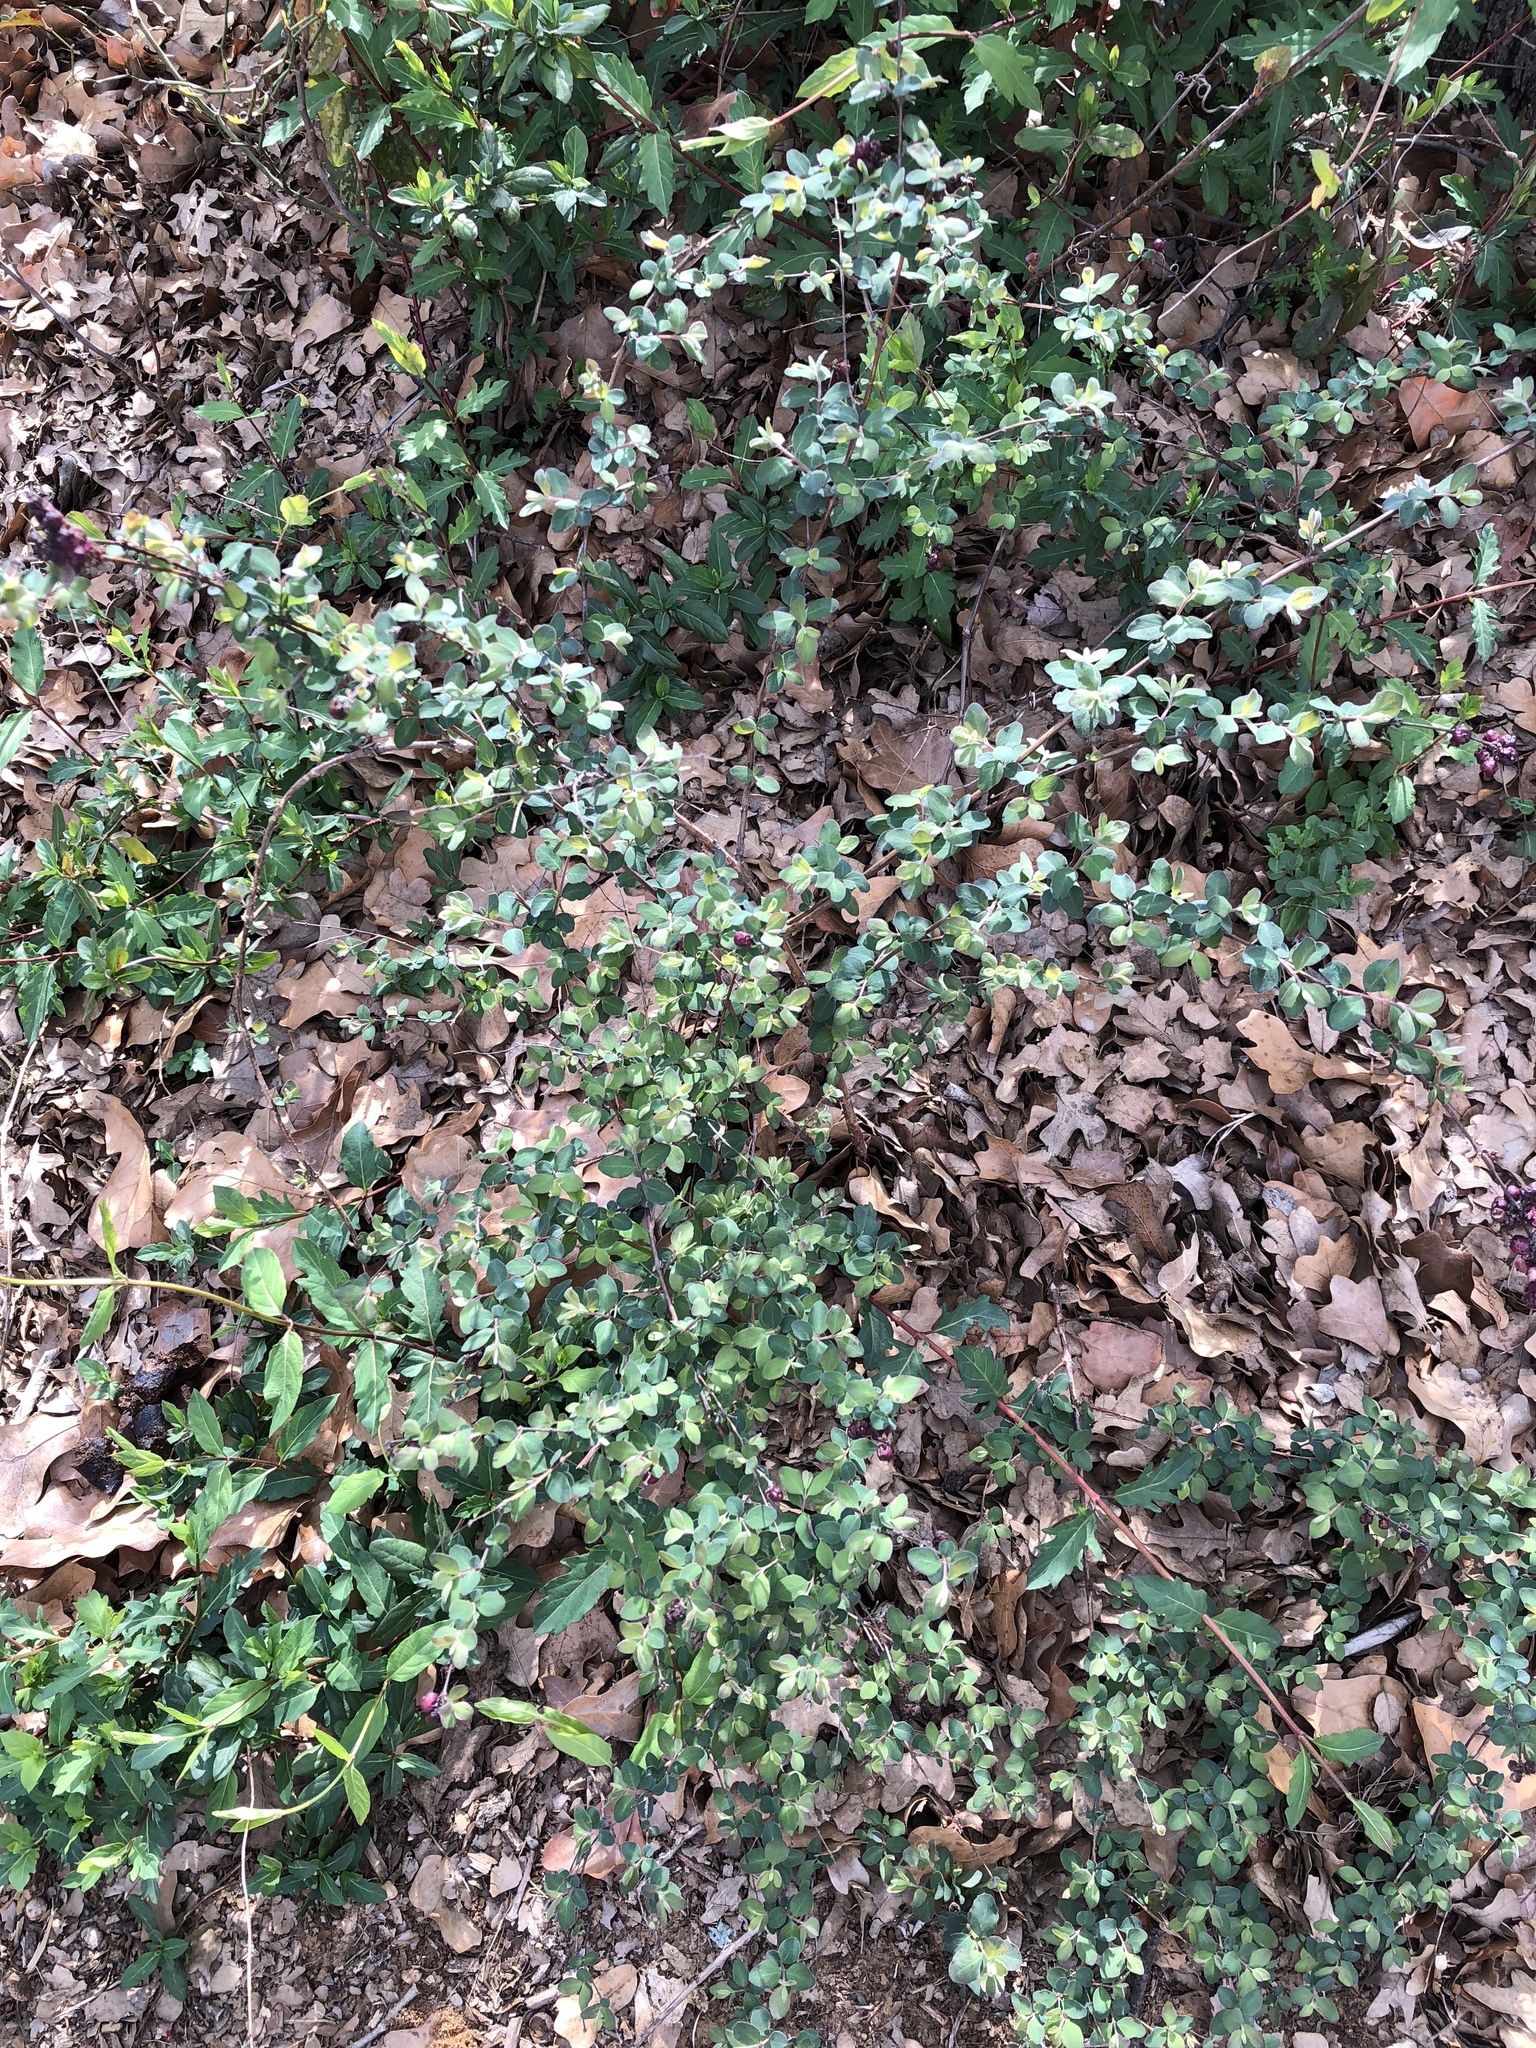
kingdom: Plantae
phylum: Tracheophyta
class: Magnoliopsida
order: Dipsacales
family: Caprifoliaceae
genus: Symphoricarpos
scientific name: Symphoricarpos orbiculatus
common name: Coralberry
